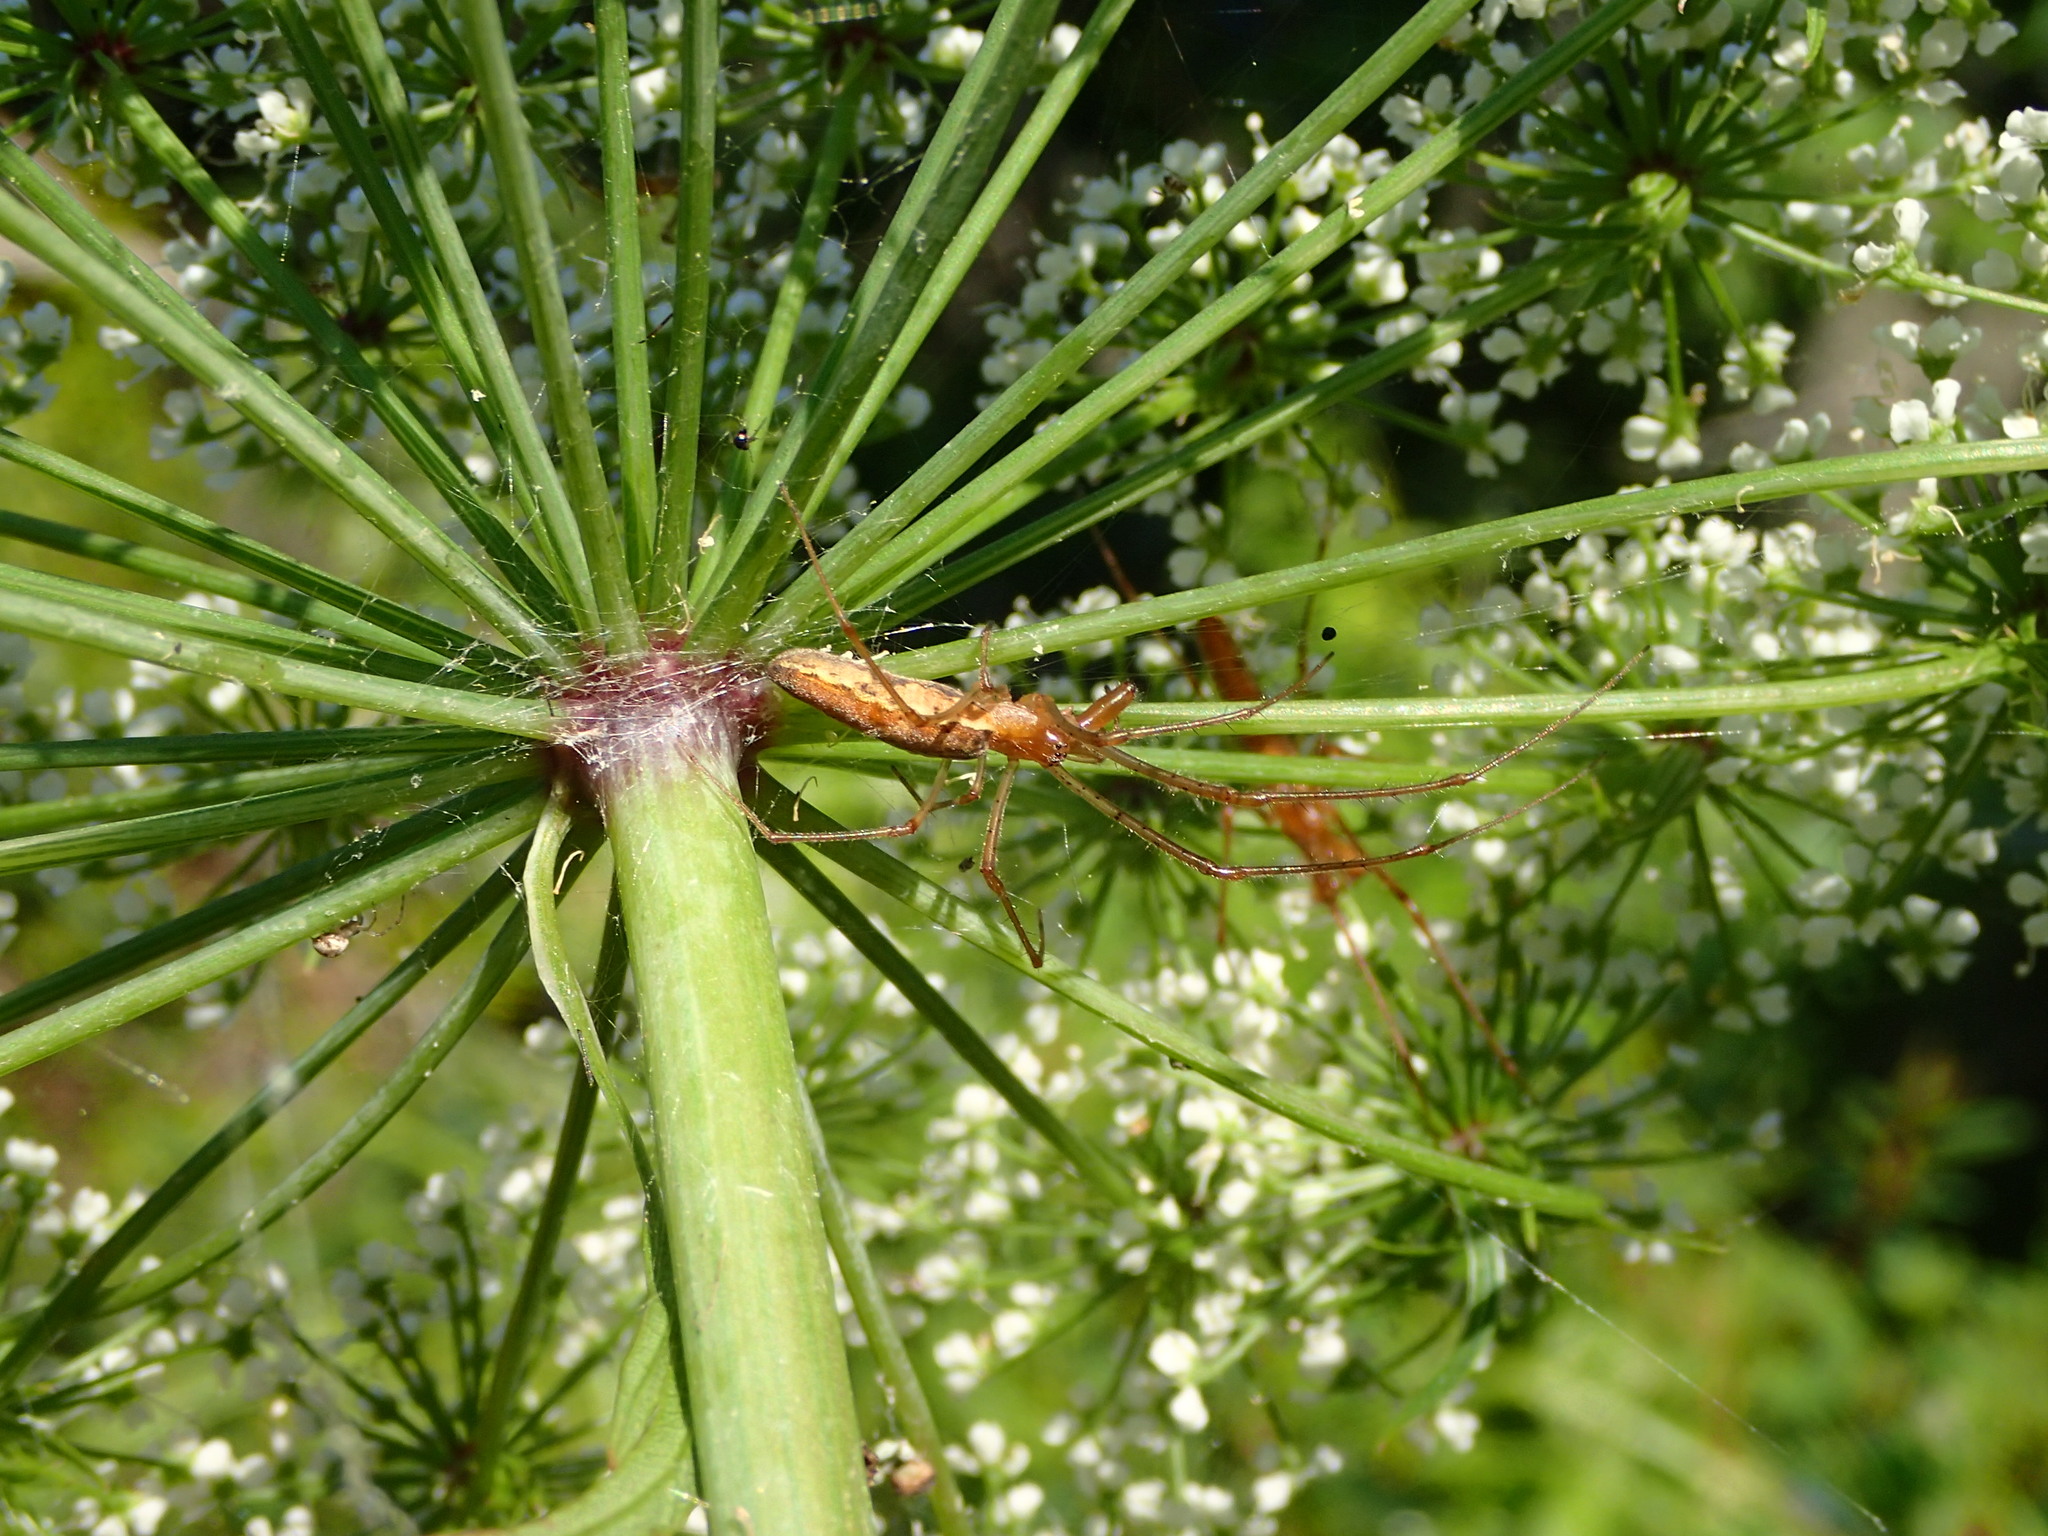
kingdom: Plantae
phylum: Tracheophyta
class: Magnoliopsida
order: Apiales
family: Apiaceae
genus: Cicuta
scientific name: Cicuta maculata
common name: Spotted cowbane
